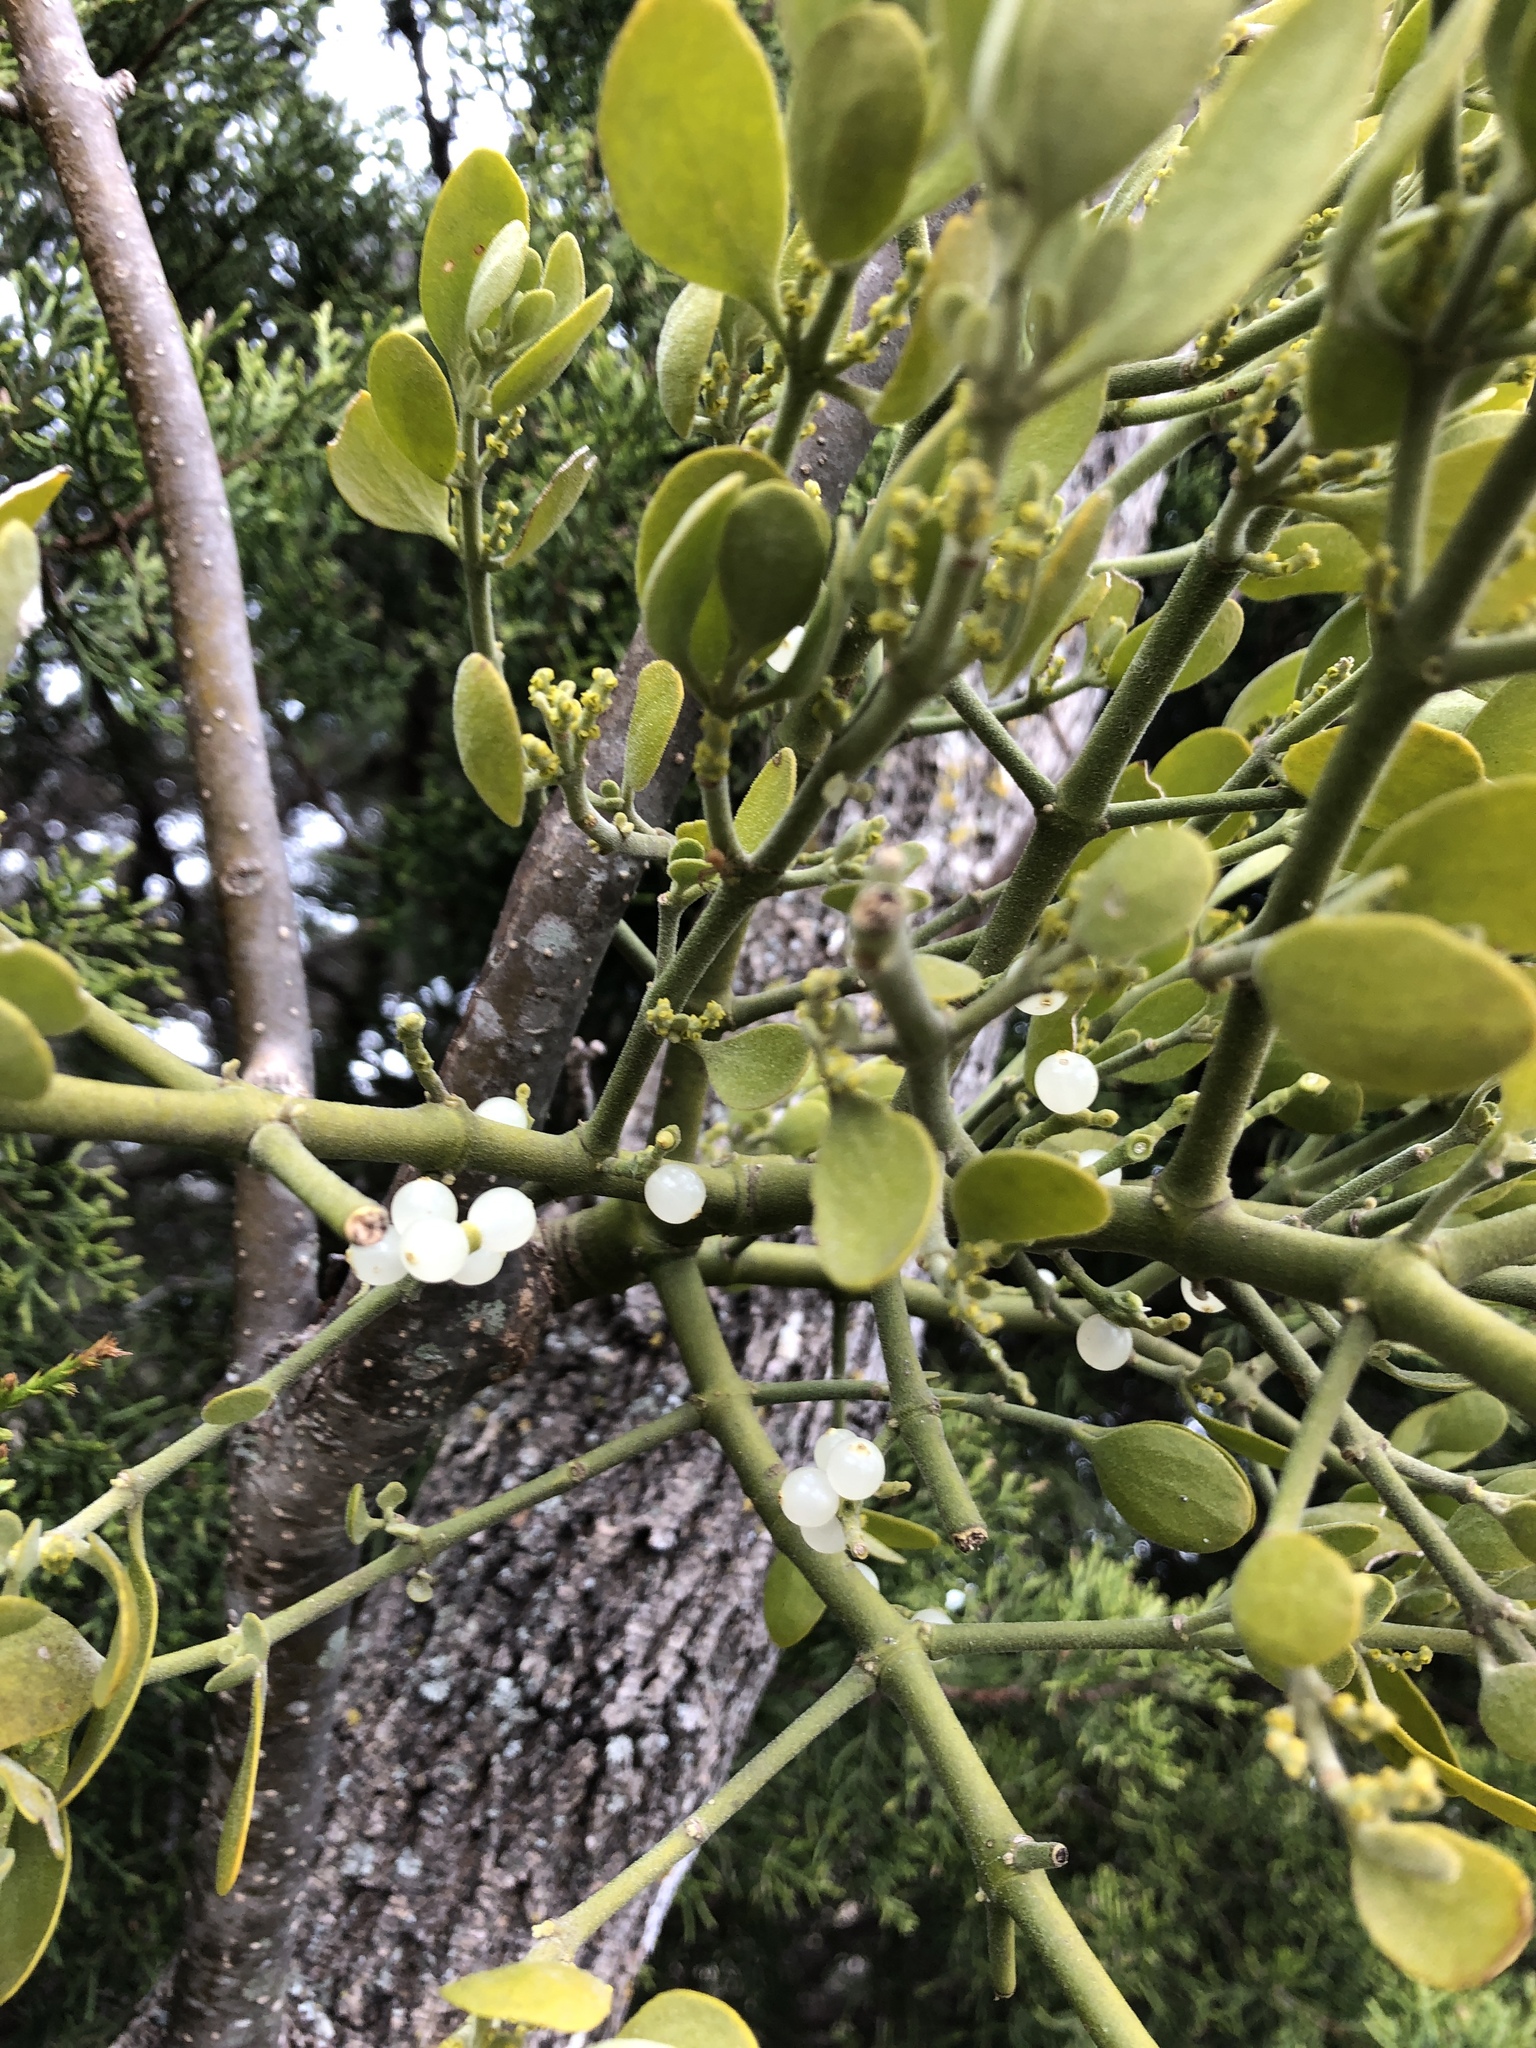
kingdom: Plantae
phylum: Tracheophyta
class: Magnoliopsida
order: Santalales
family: Viscaceae
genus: Phoradendron
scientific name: Phoradendron leucarpum
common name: Pacific mistletoe
